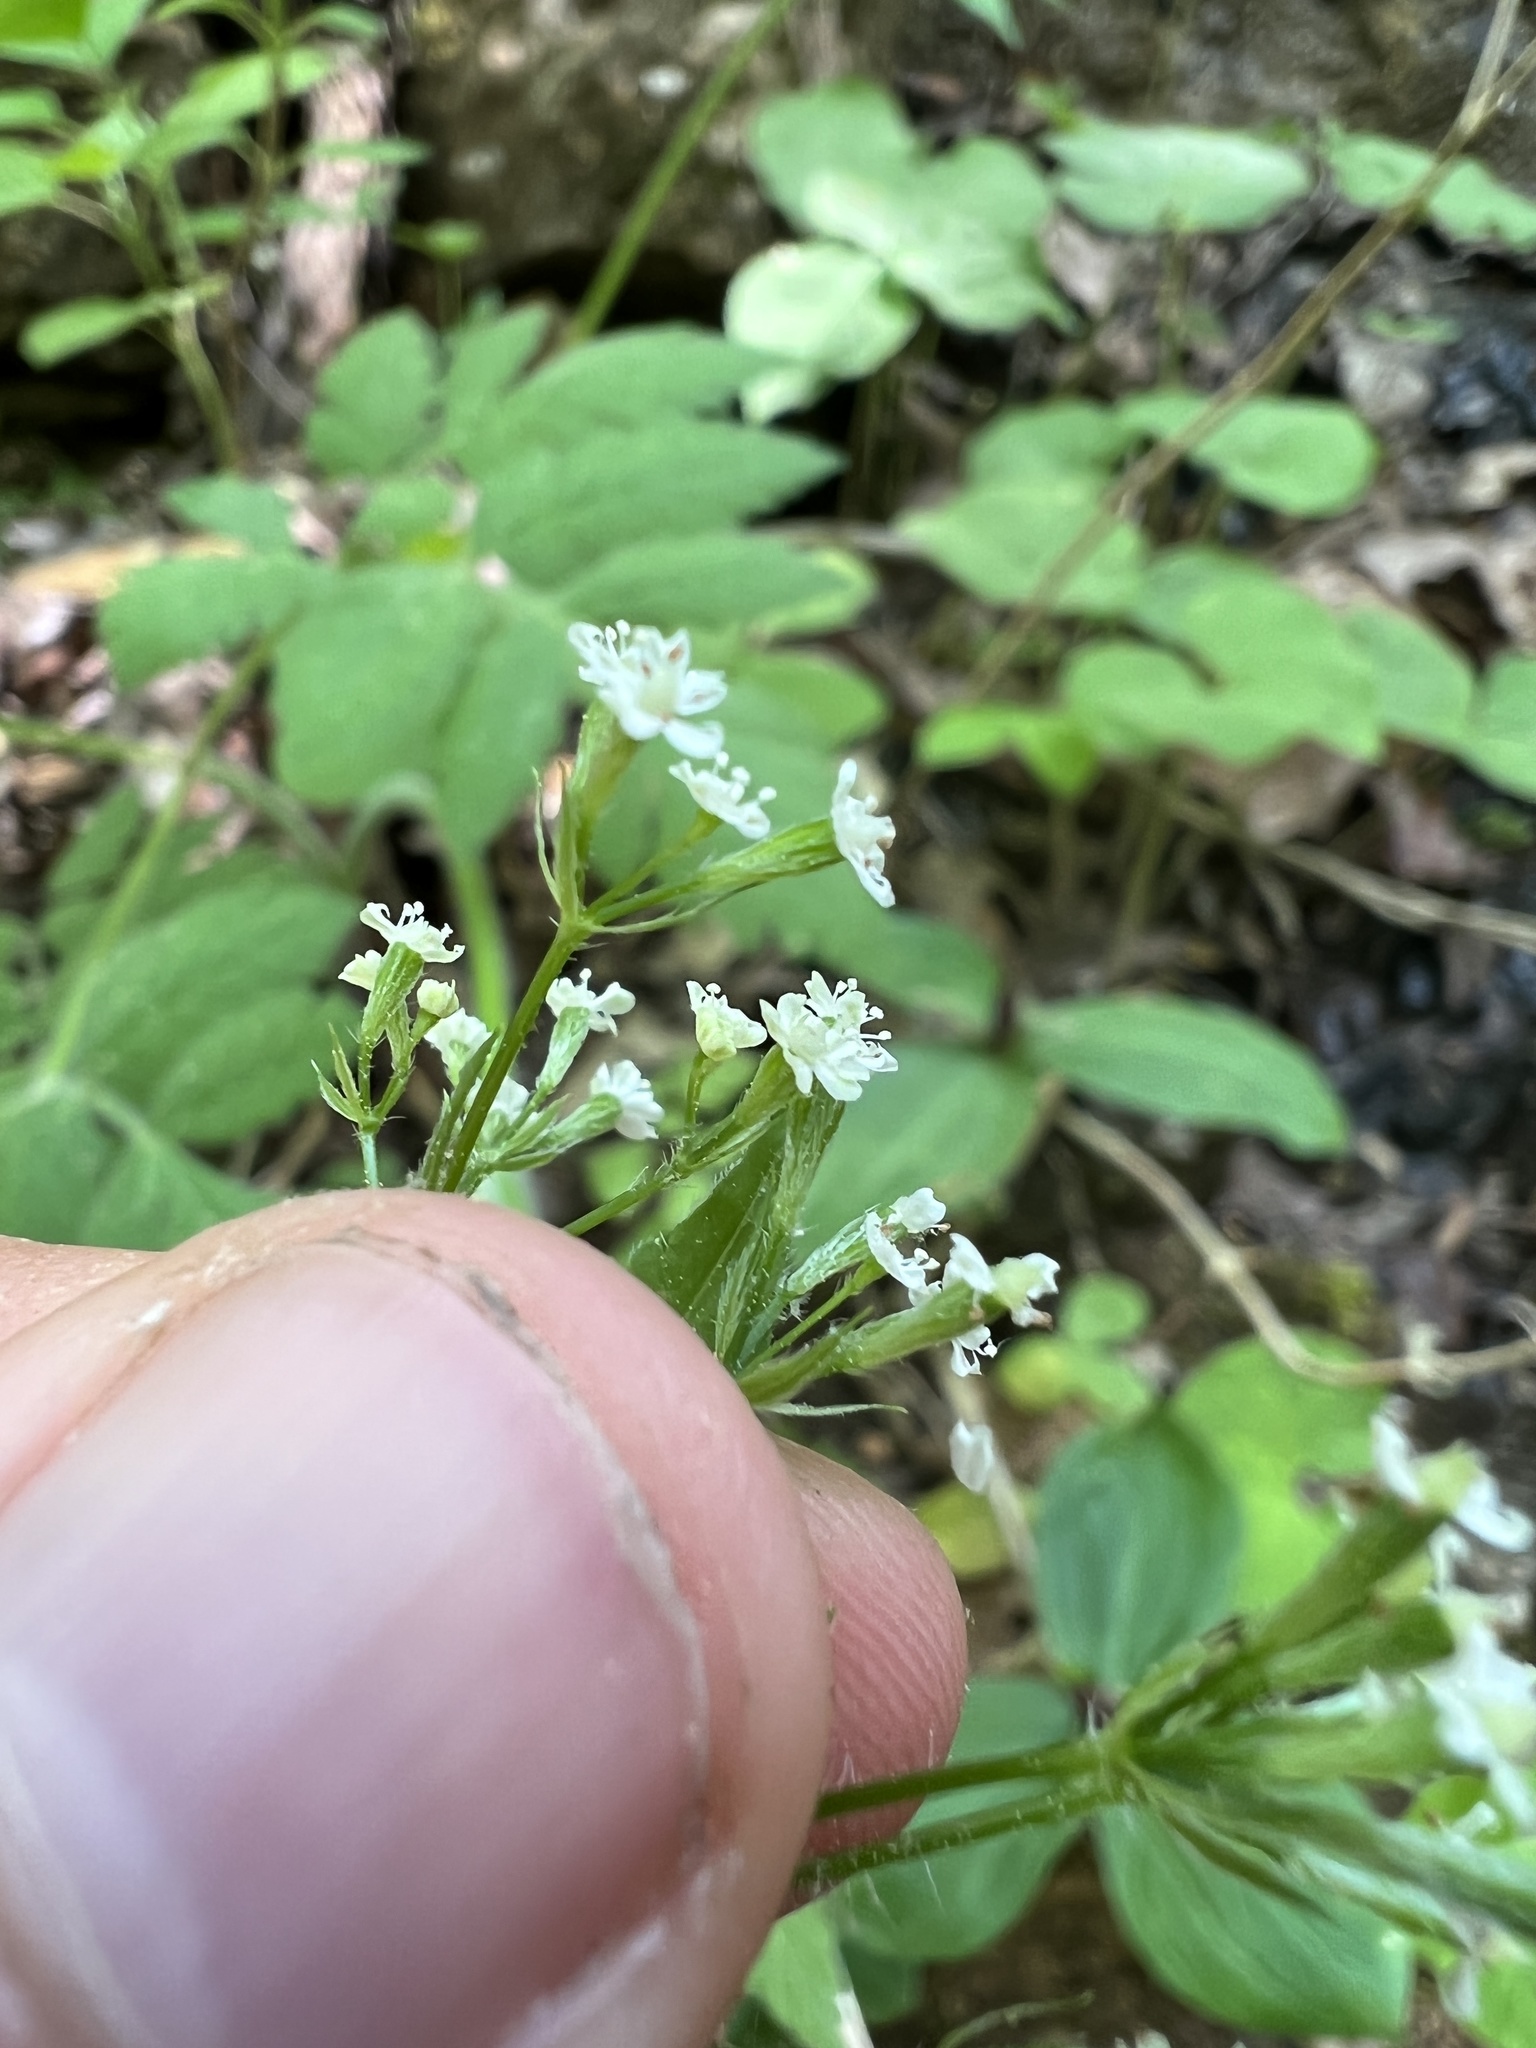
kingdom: Plantae
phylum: Tracheophyta
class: Magnoliopsida
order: Apiales
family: Apiaceae
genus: Osmorhiza
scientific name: Osmorhiza claytonii
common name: Hairy sweet cicely
